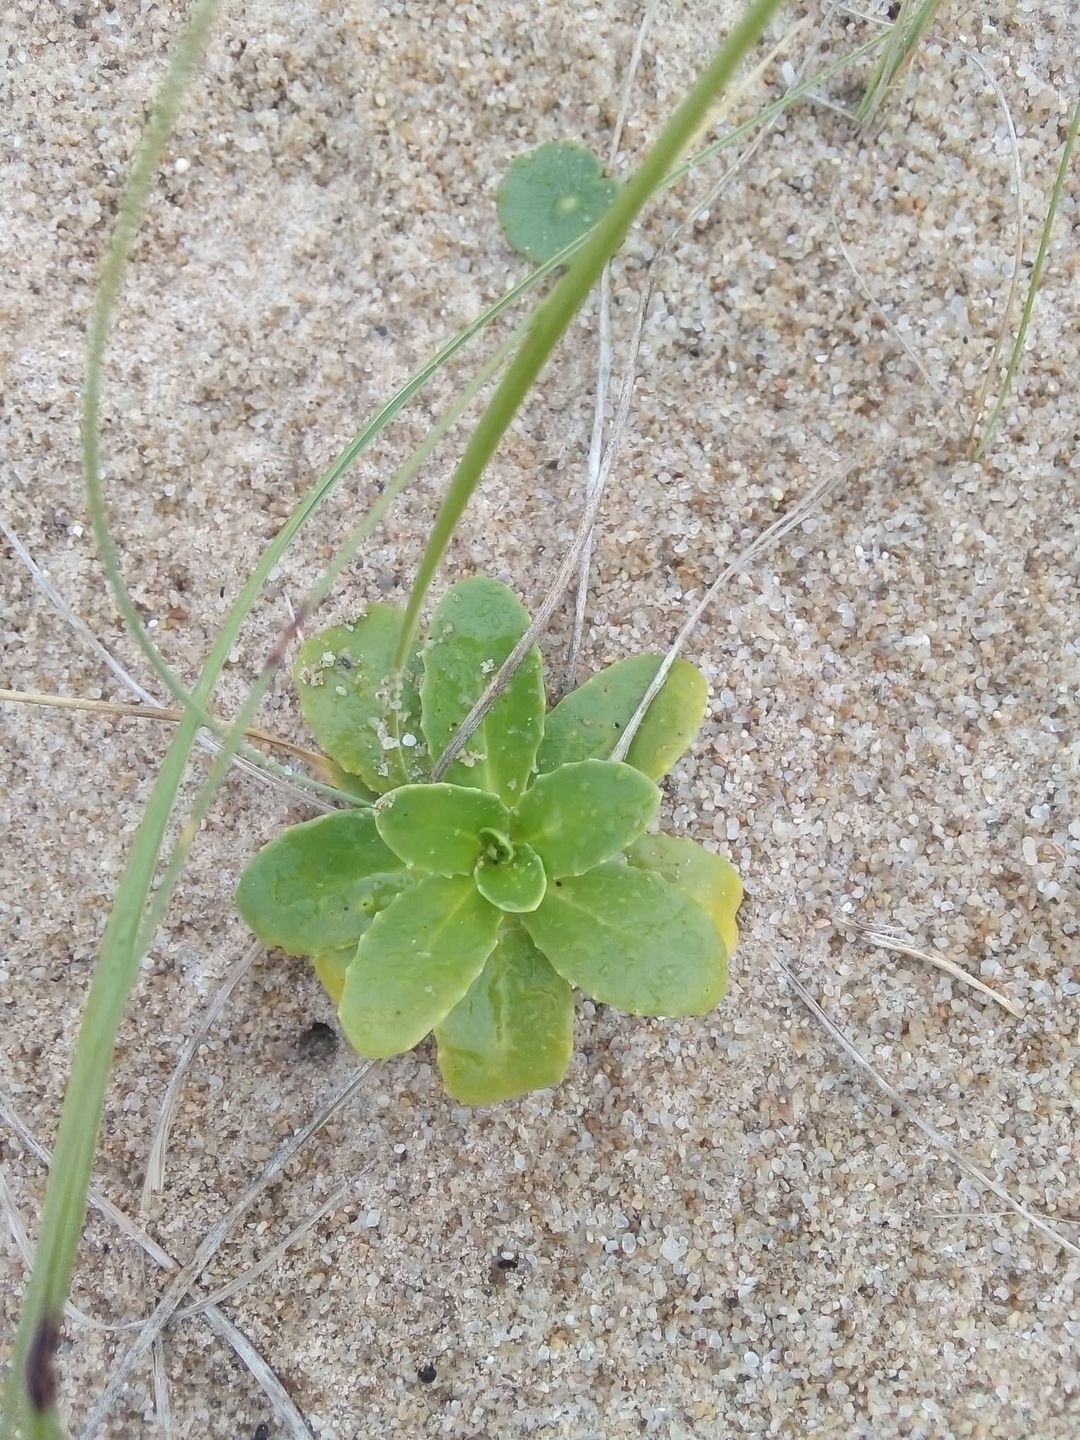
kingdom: Plantae
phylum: Tracheophyta
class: Magnoliopsida
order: Asterales
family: Calyceraceae
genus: Calycera
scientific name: Calycera crassifolia
